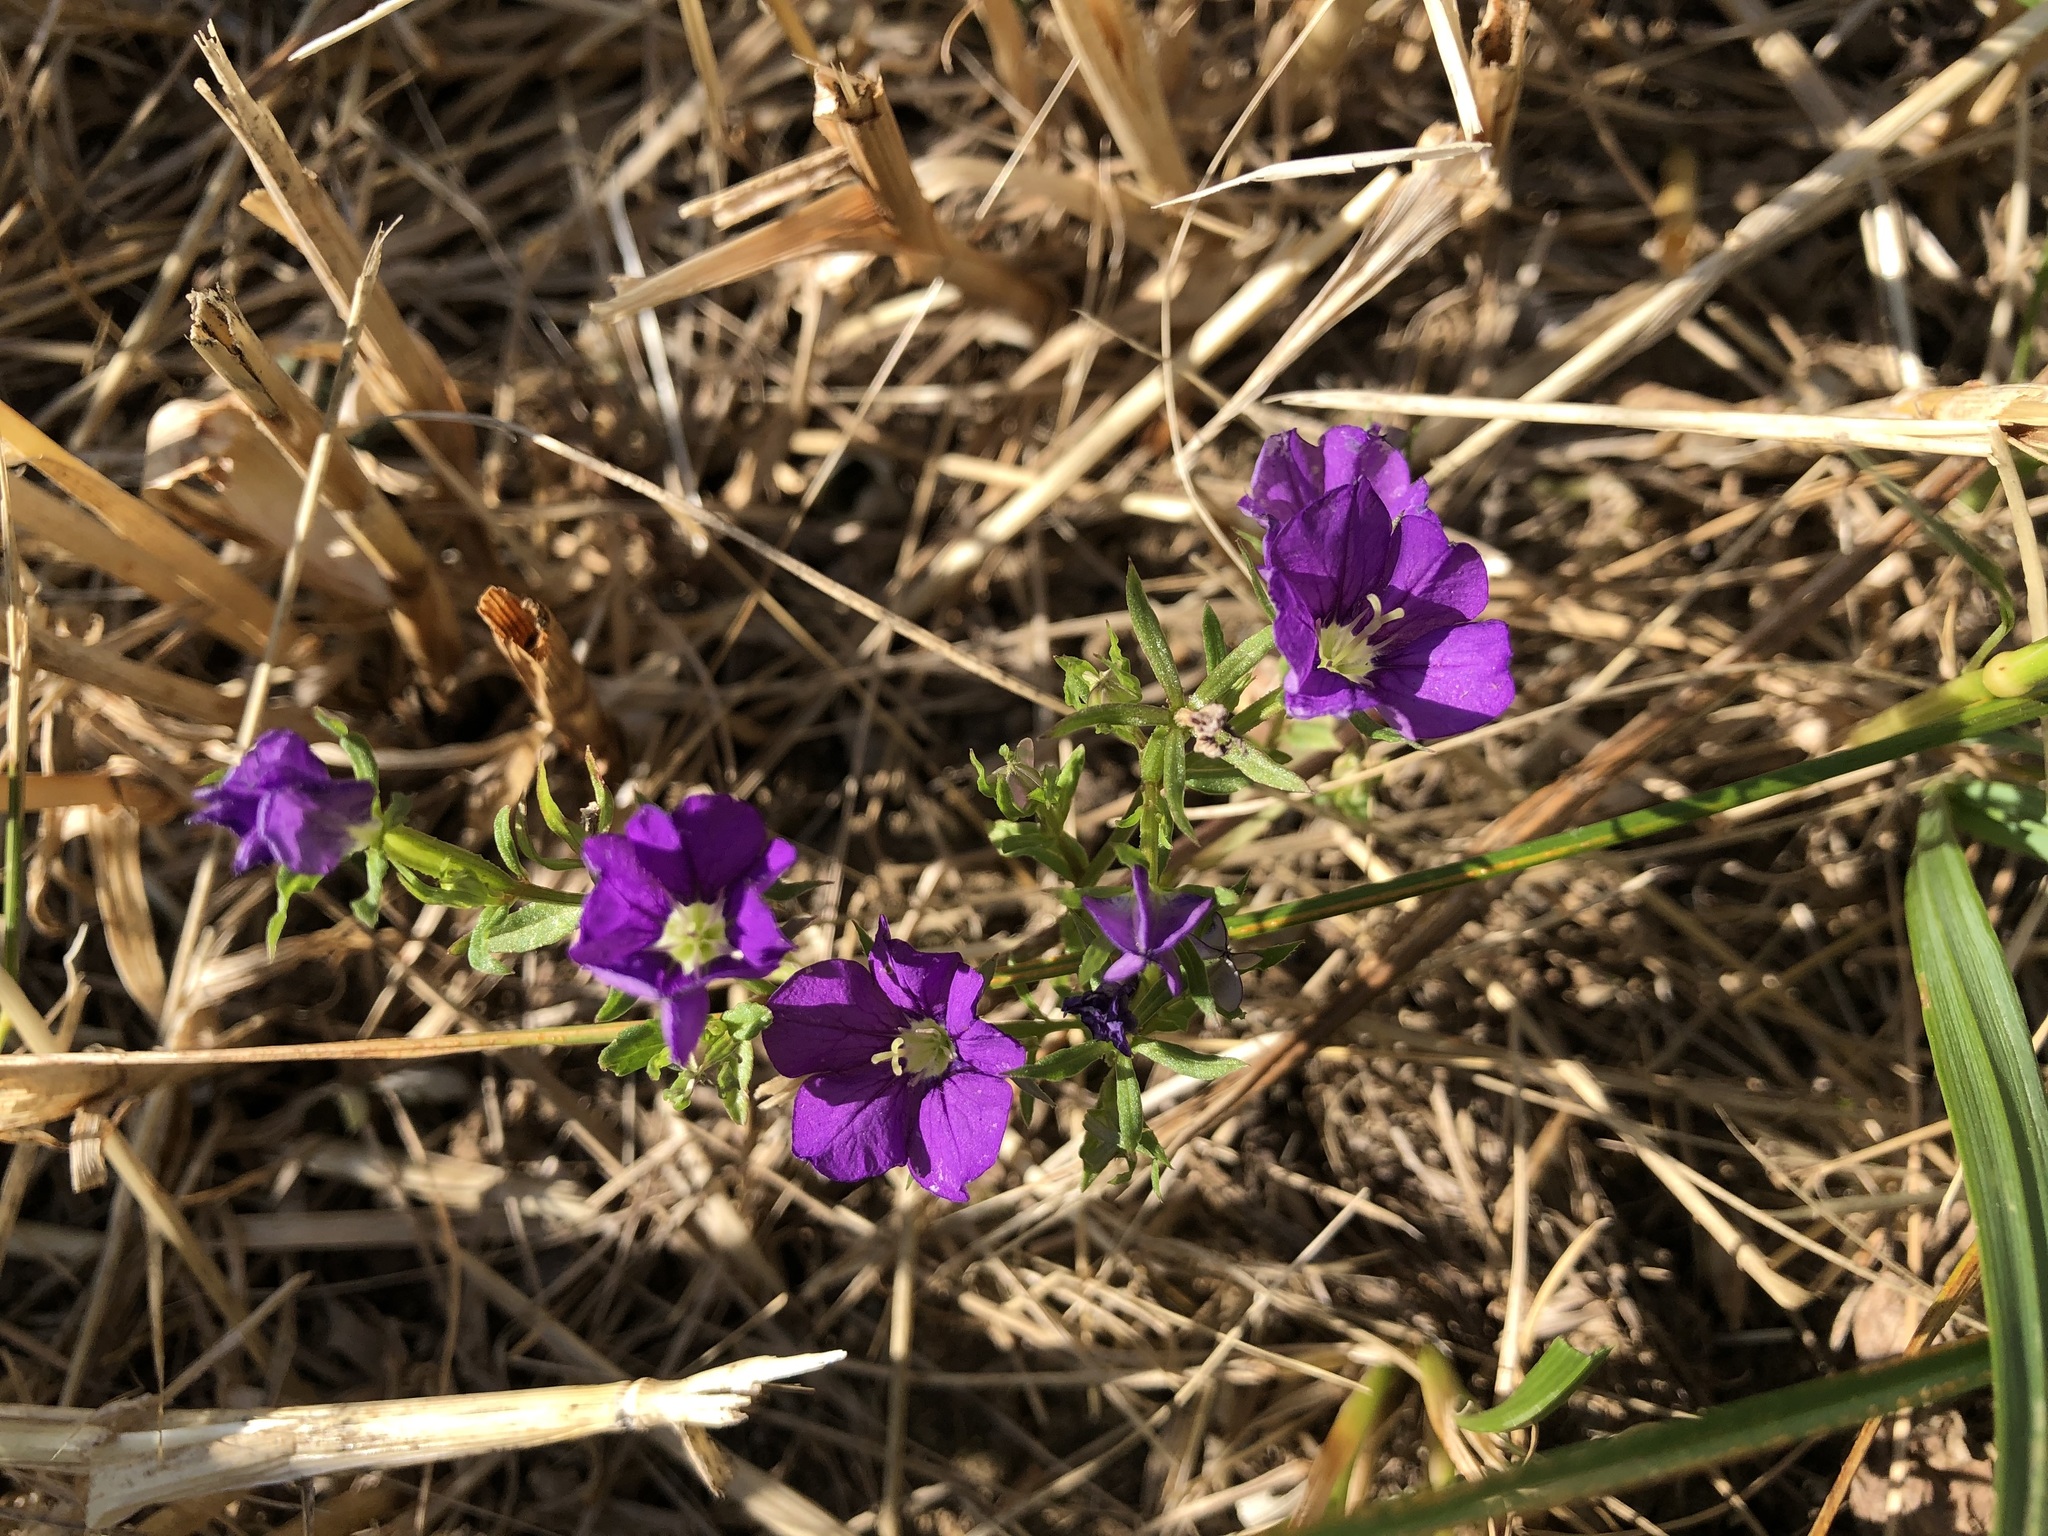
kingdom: Plantae
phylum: Tracheophyta
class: Magnoliopsida
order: Asterales
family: Campanulaceae
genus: Legousia
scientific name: Legousia speculum-veneris
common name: Large venus's-looking-glass
